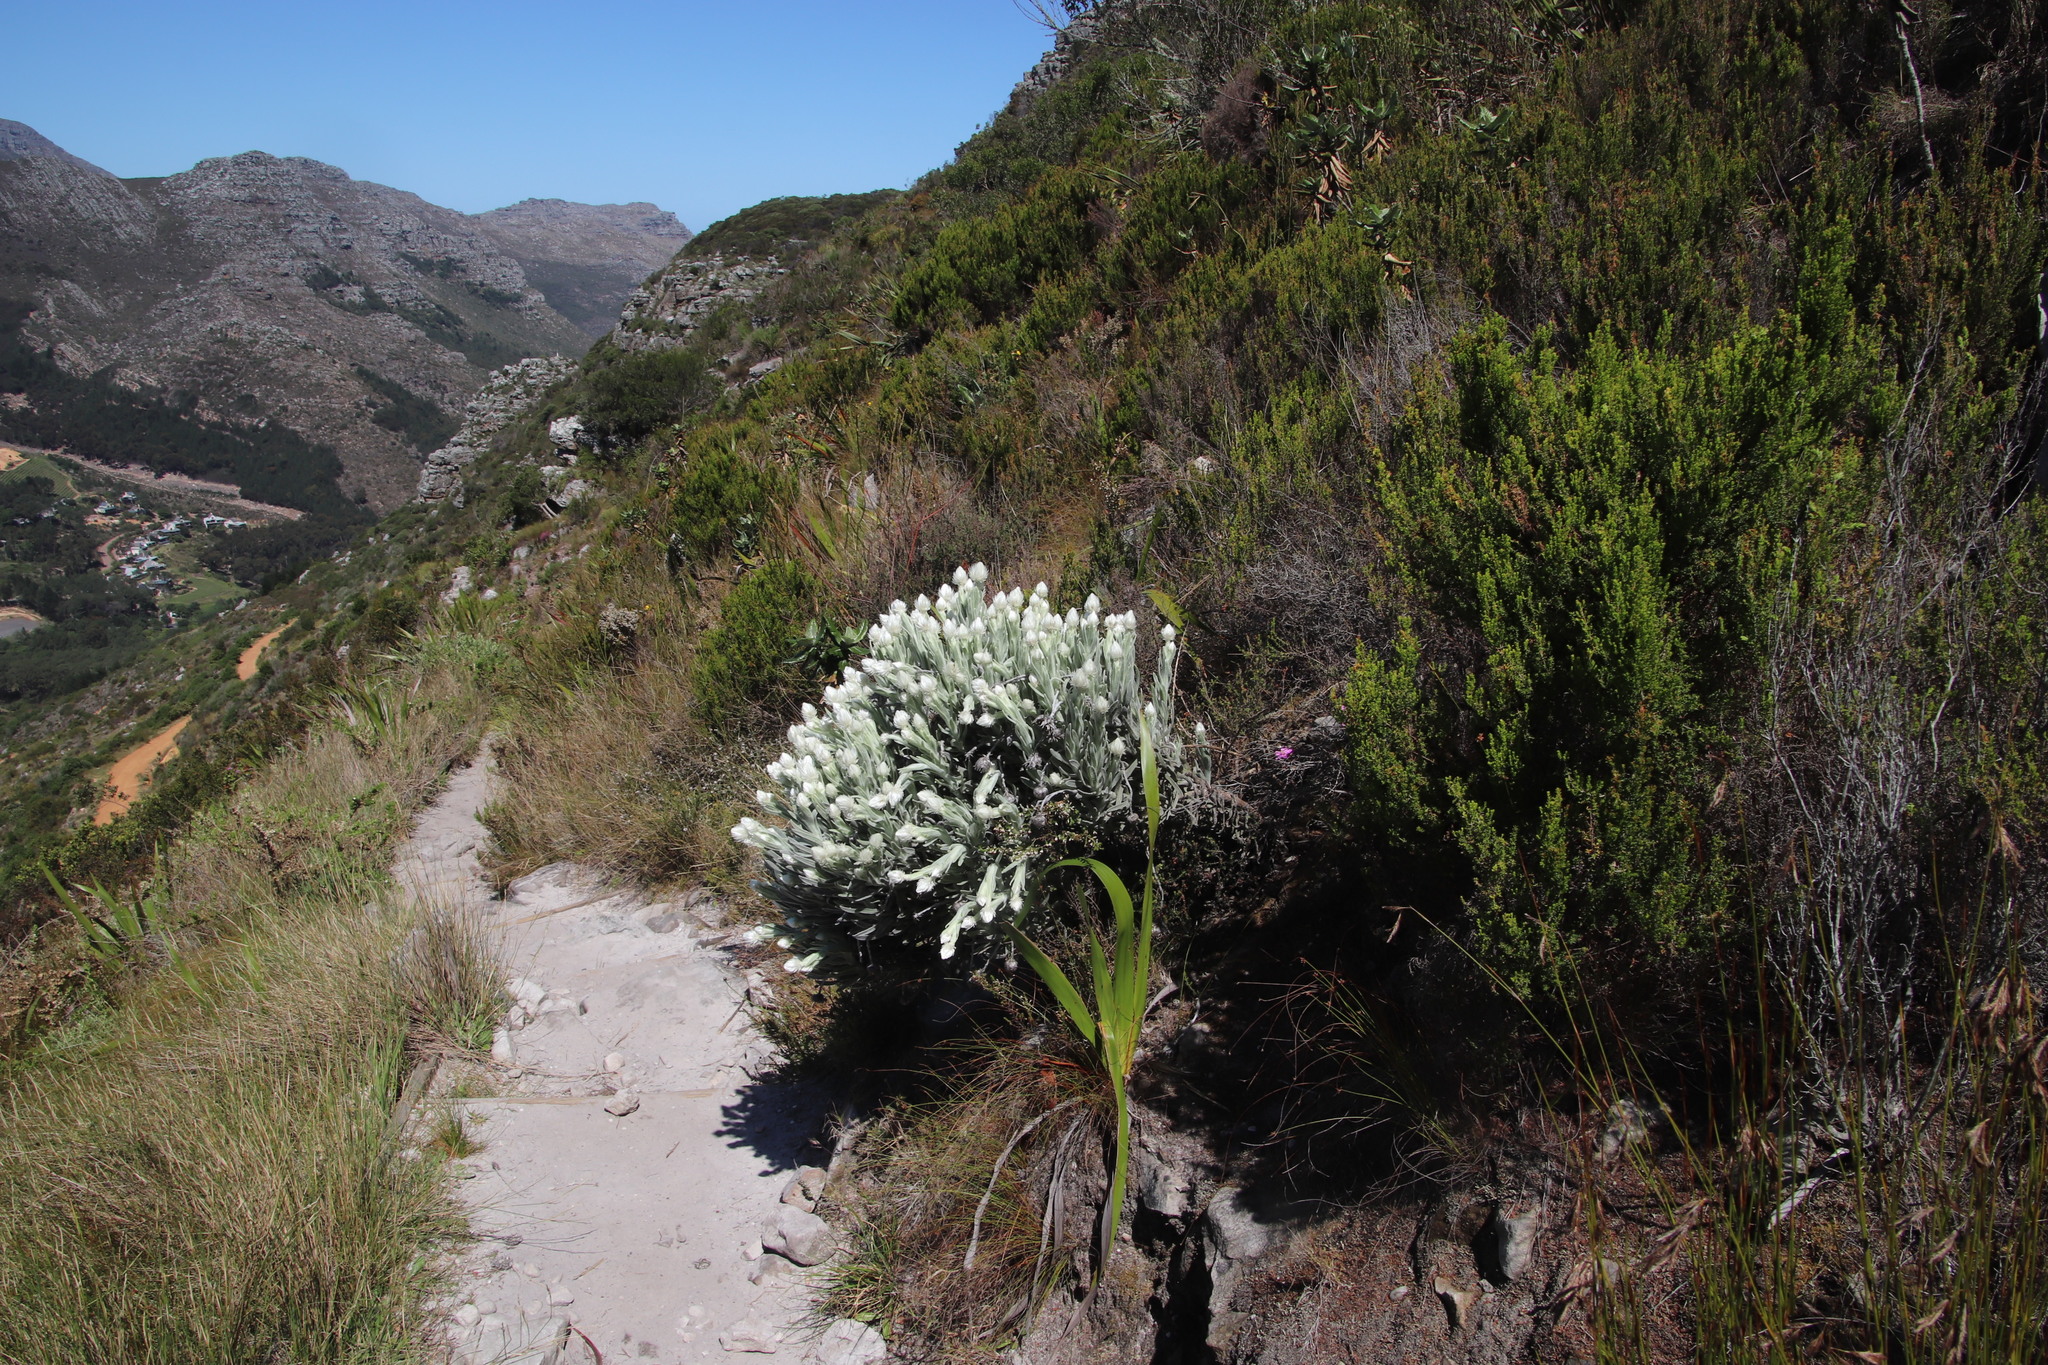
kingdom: Plantae
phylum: Tracheophyta
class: Magnoliopsida
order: Asterales
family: Asteraceae
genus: Syncarpha
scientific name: Syncarpha vestita
